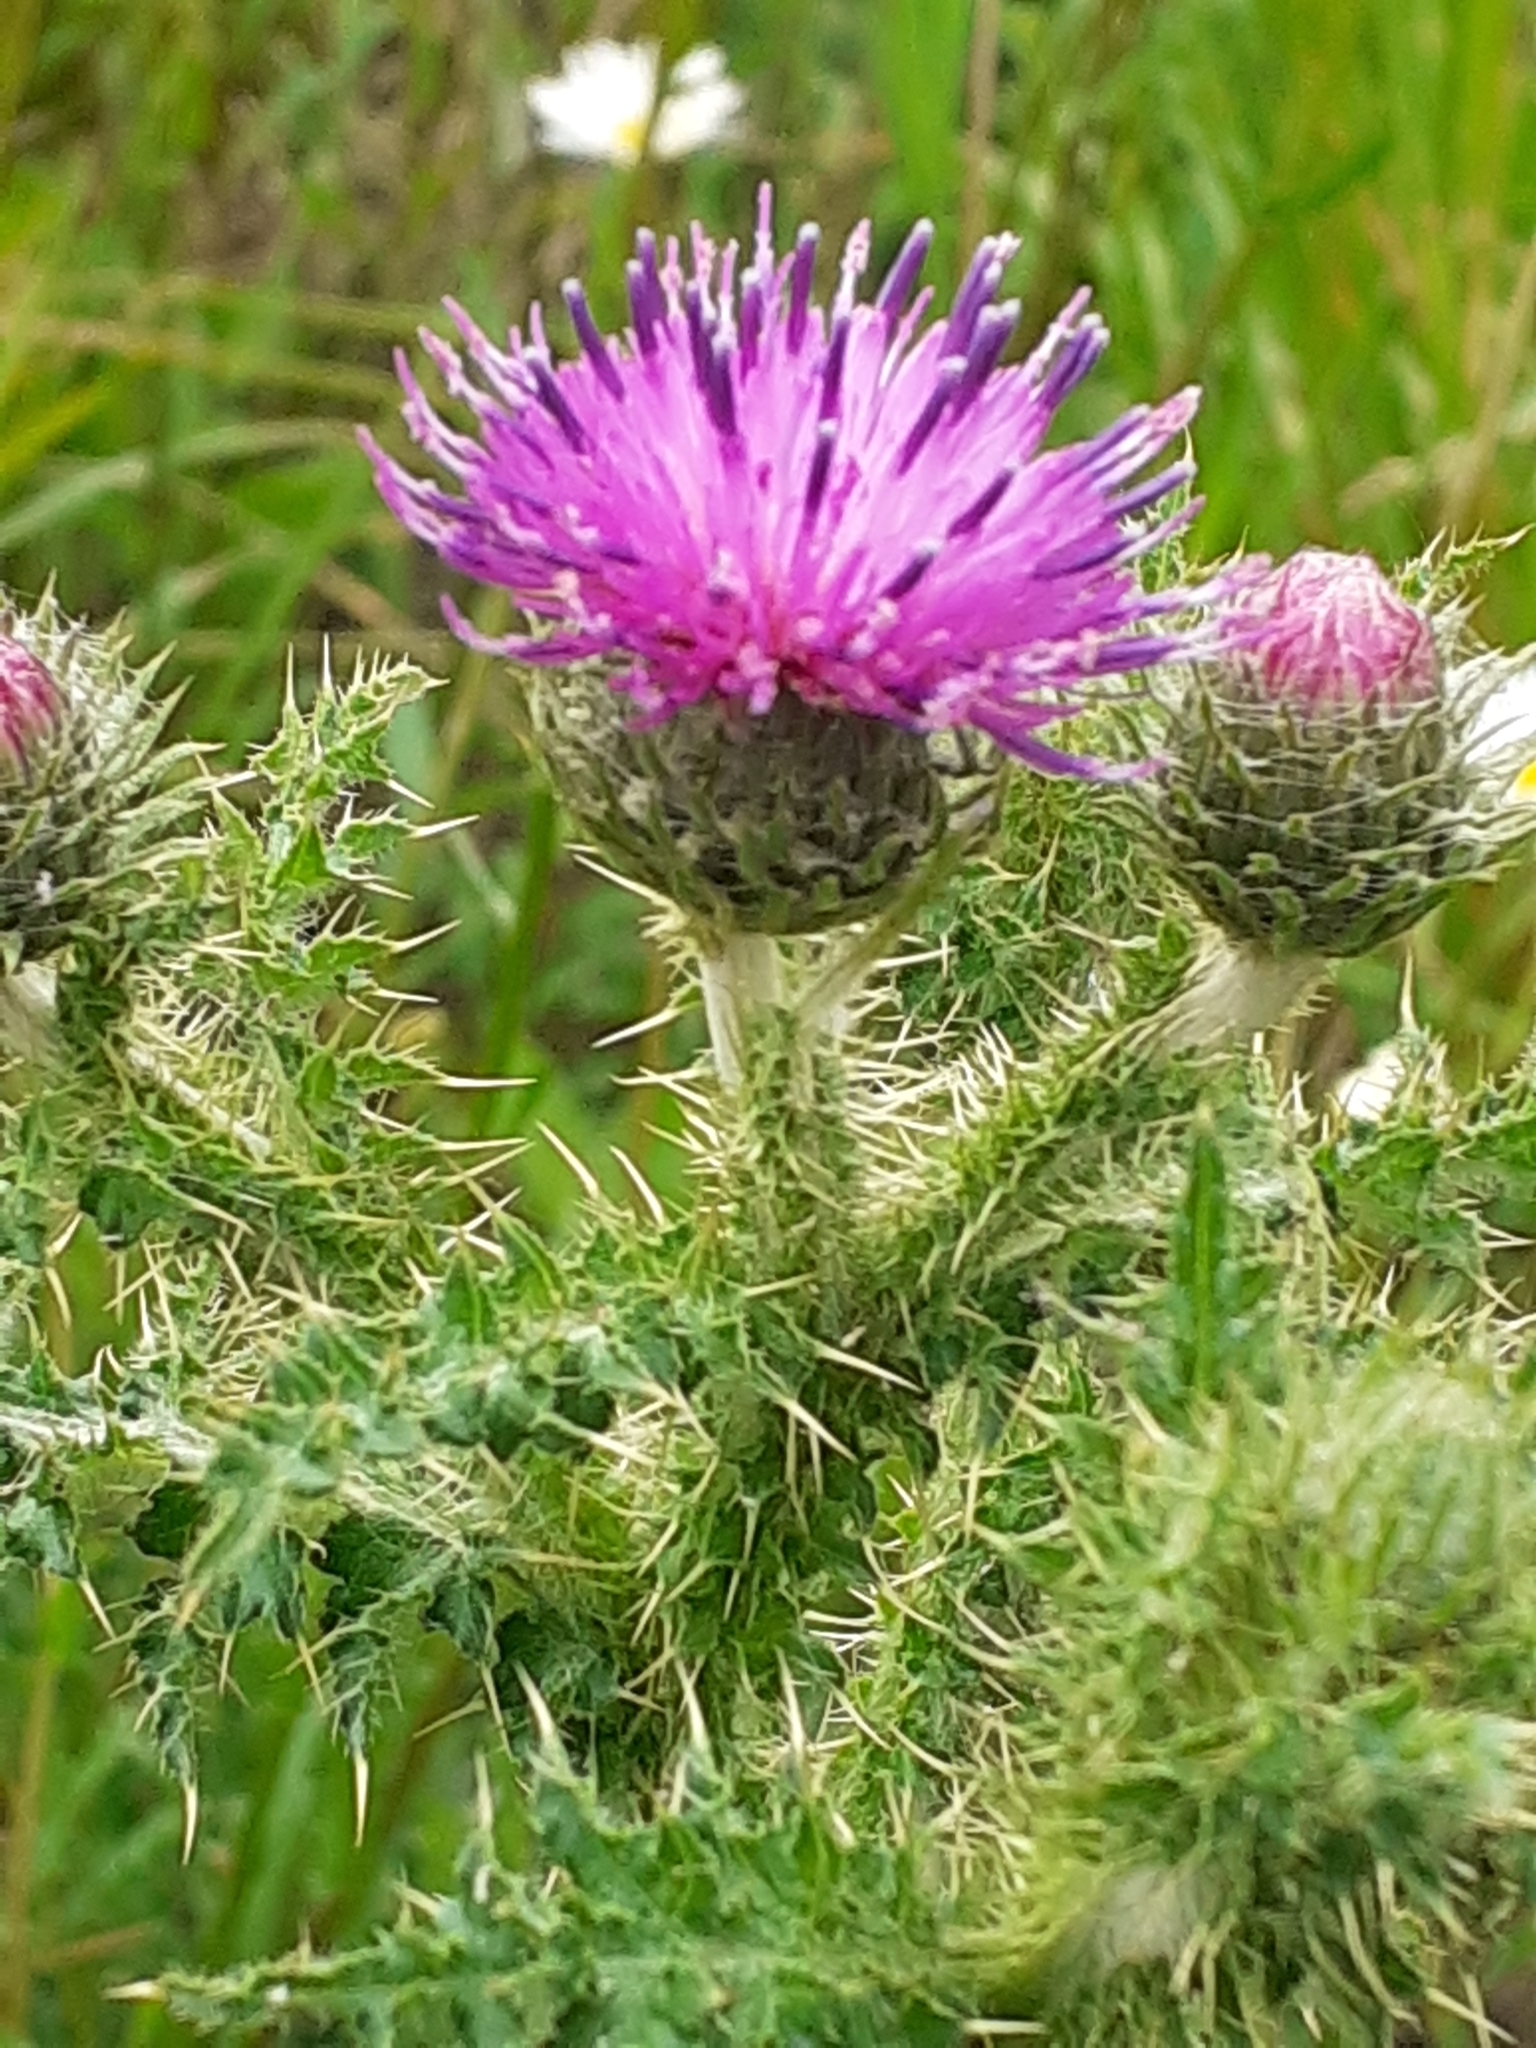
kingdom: Plantae
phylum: Tracheophyta
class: Magnoliopsida
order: Asterales
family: Asteraceae
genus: Carduus
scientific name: Carduus crispus
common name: Welted thistle
